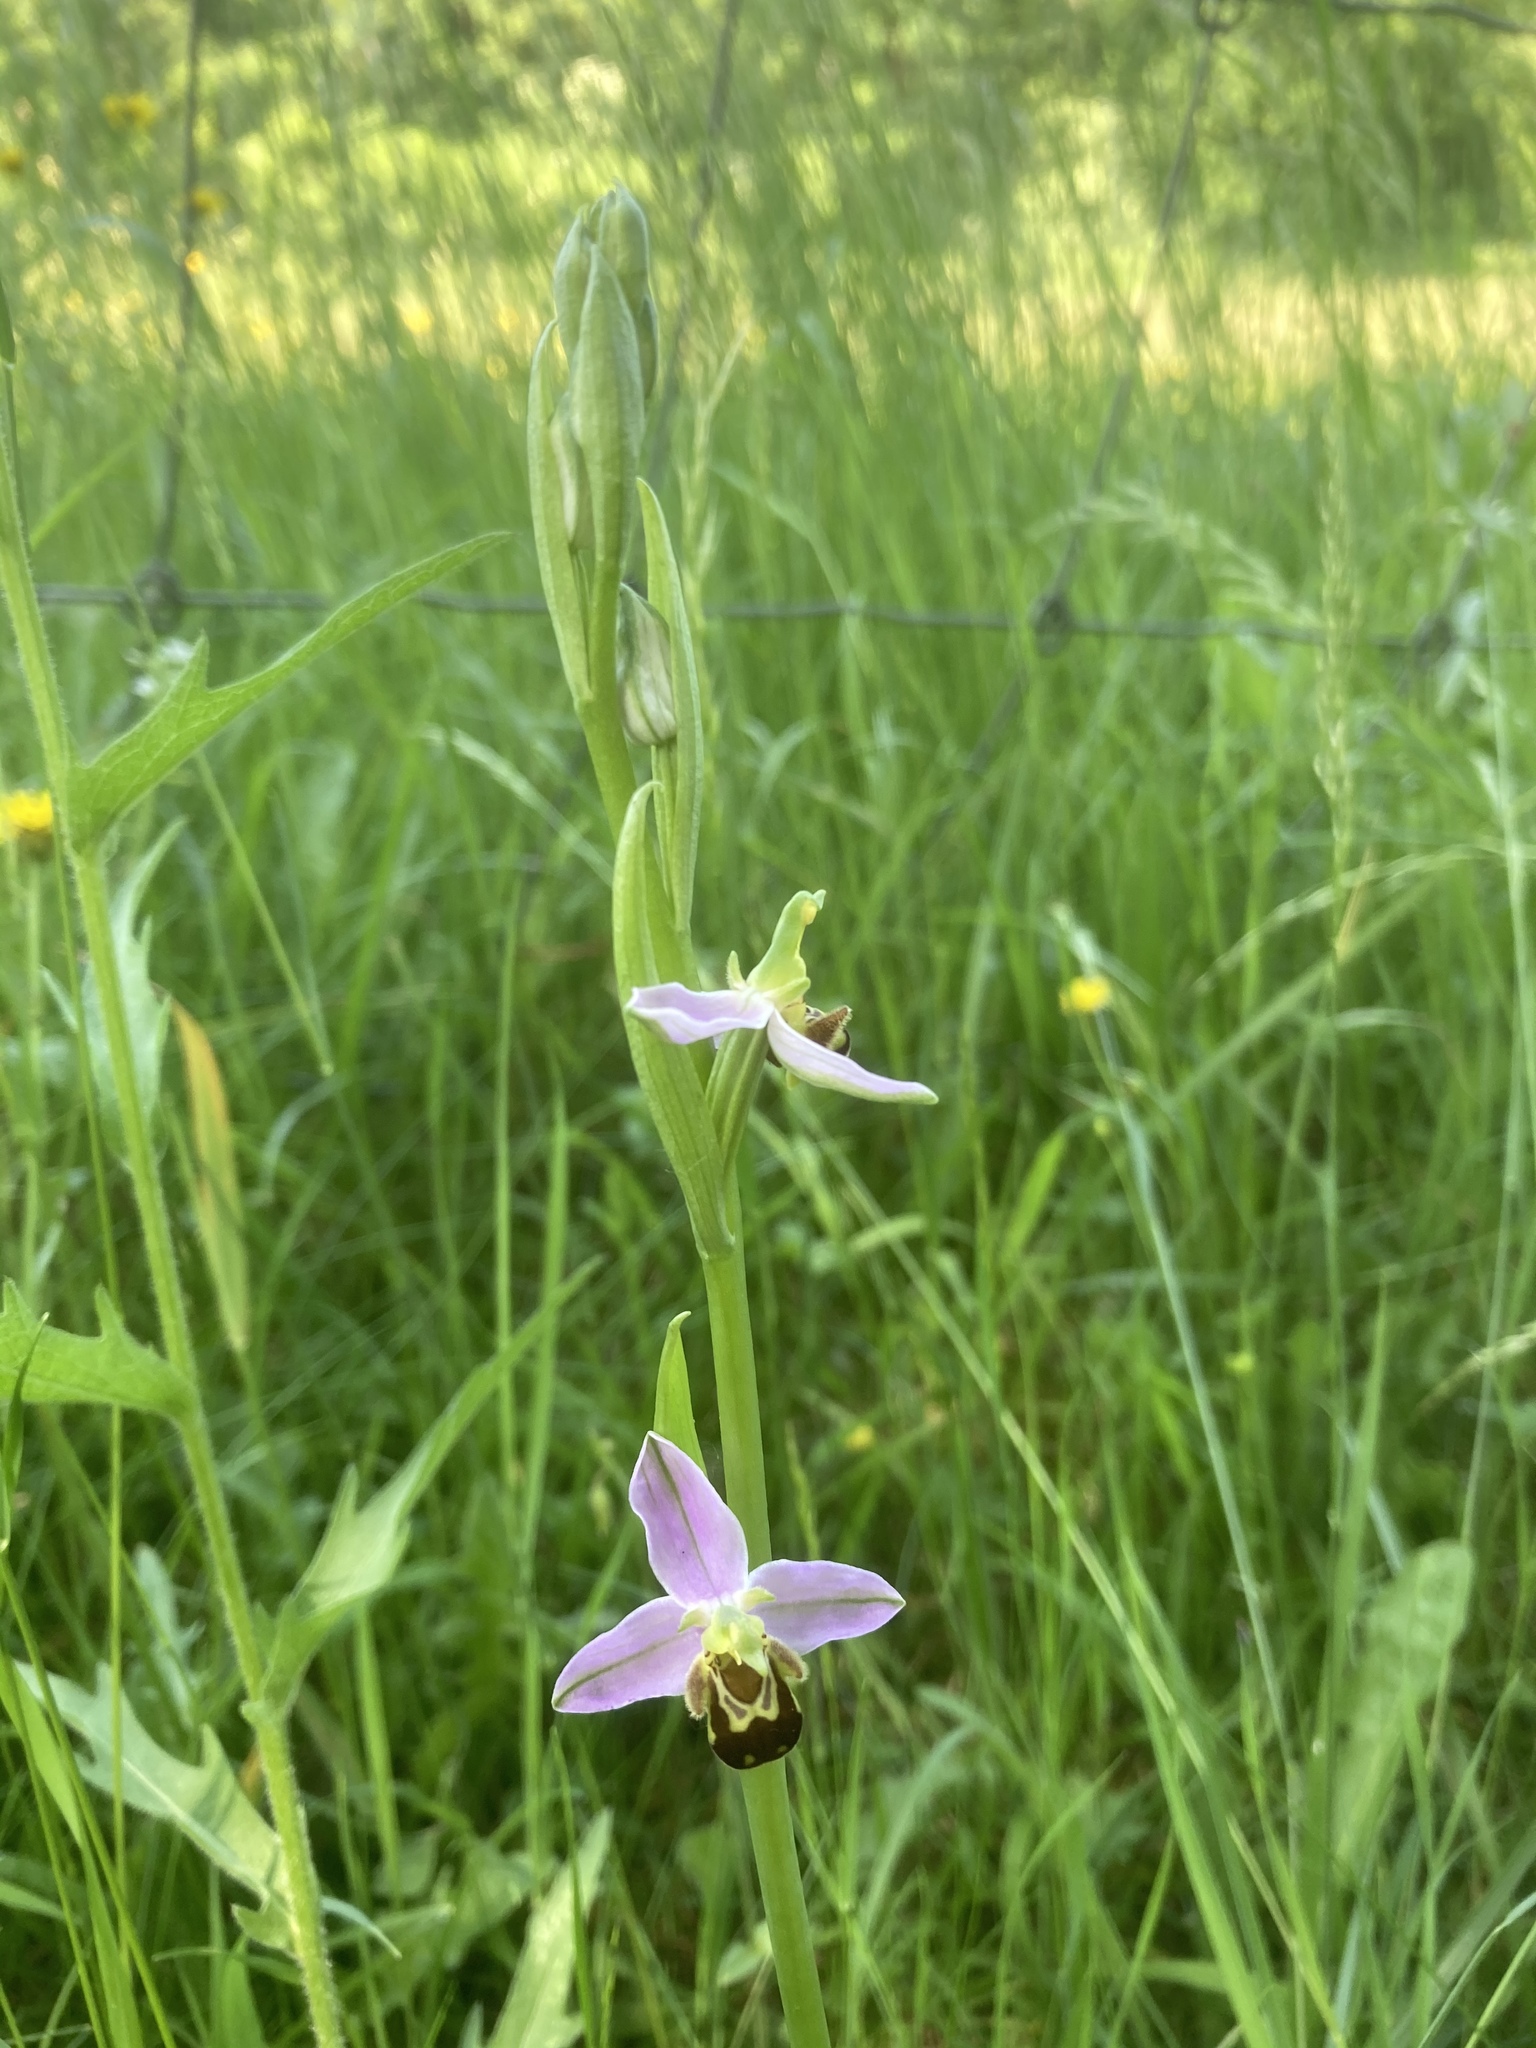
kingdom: Plantae
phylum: Tracheophyta
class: Liliopsida
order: Asparagales
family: Orchidaceae
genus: Ophrys
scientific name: Ophrys apifera
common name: Bee orchid
